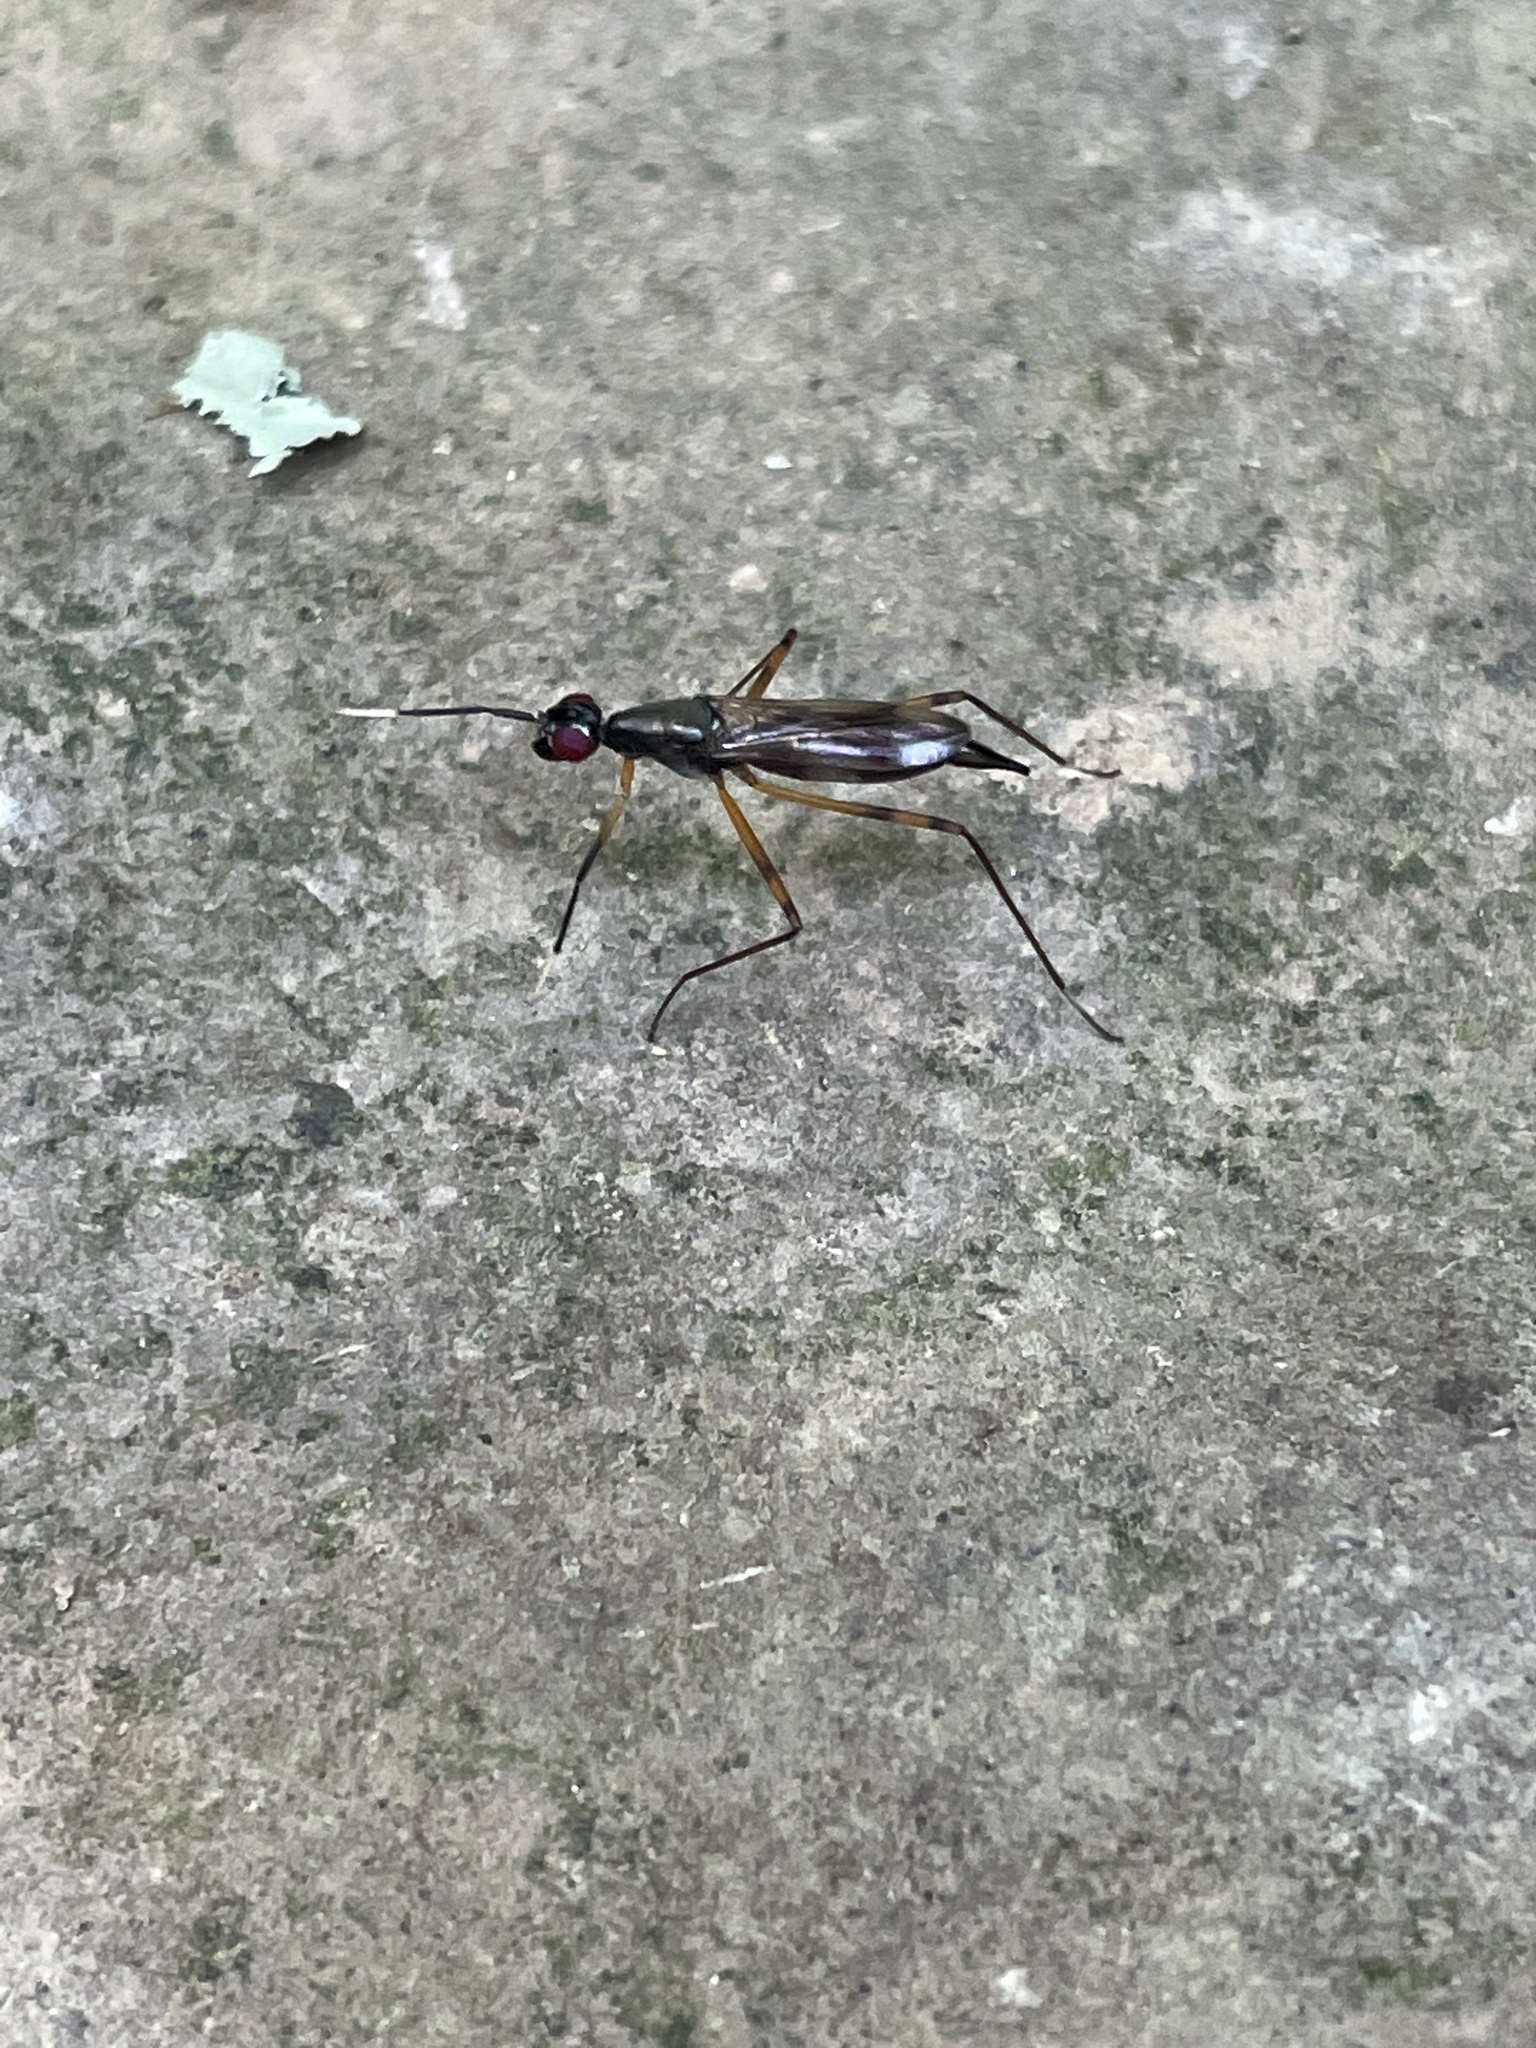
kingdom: Animalia
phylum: Arthropoda
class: Insecta
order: Diptera
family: Micropezidae
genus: Rainieria
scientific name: Rainieria antennaepes
